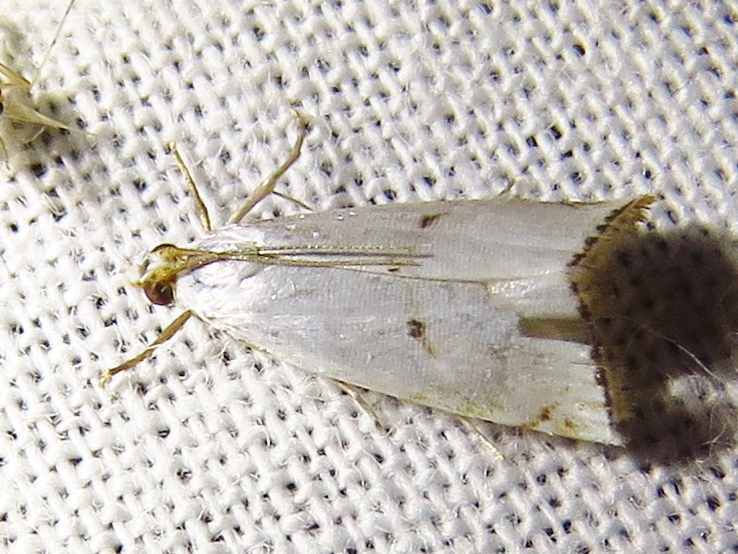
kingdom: Animalia
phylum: Arthropoda
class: Insecta
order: Lepidoptera
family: Crambidae
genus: Argyria
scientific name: Argyria pusillalis
